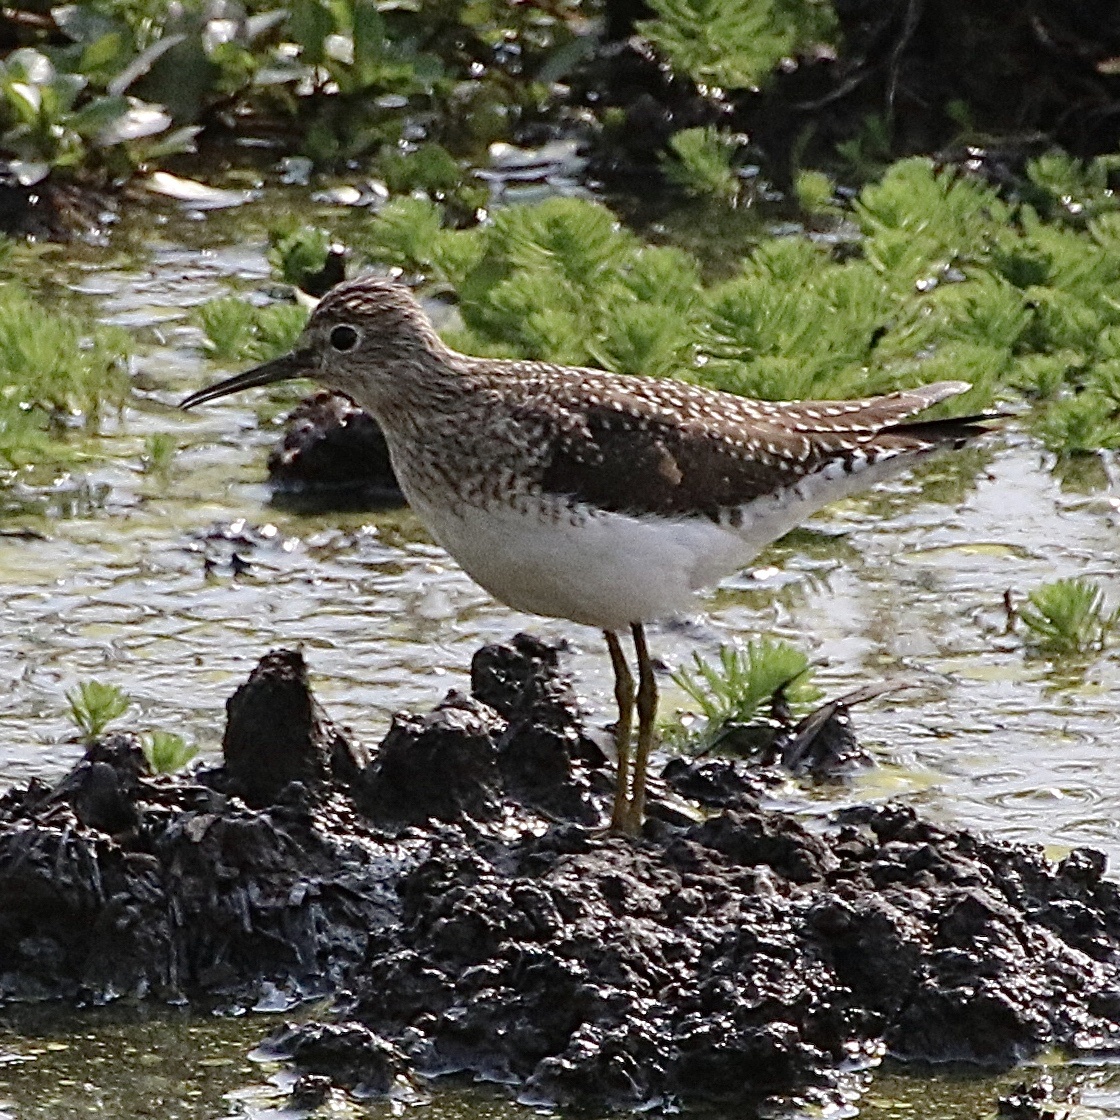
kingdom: Animalia
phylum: Chordata
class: Aves
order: Charadriiformes
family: Scolopacidae
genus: Tringa
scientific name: Tringa solitaria
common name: Solitary sandpiper
